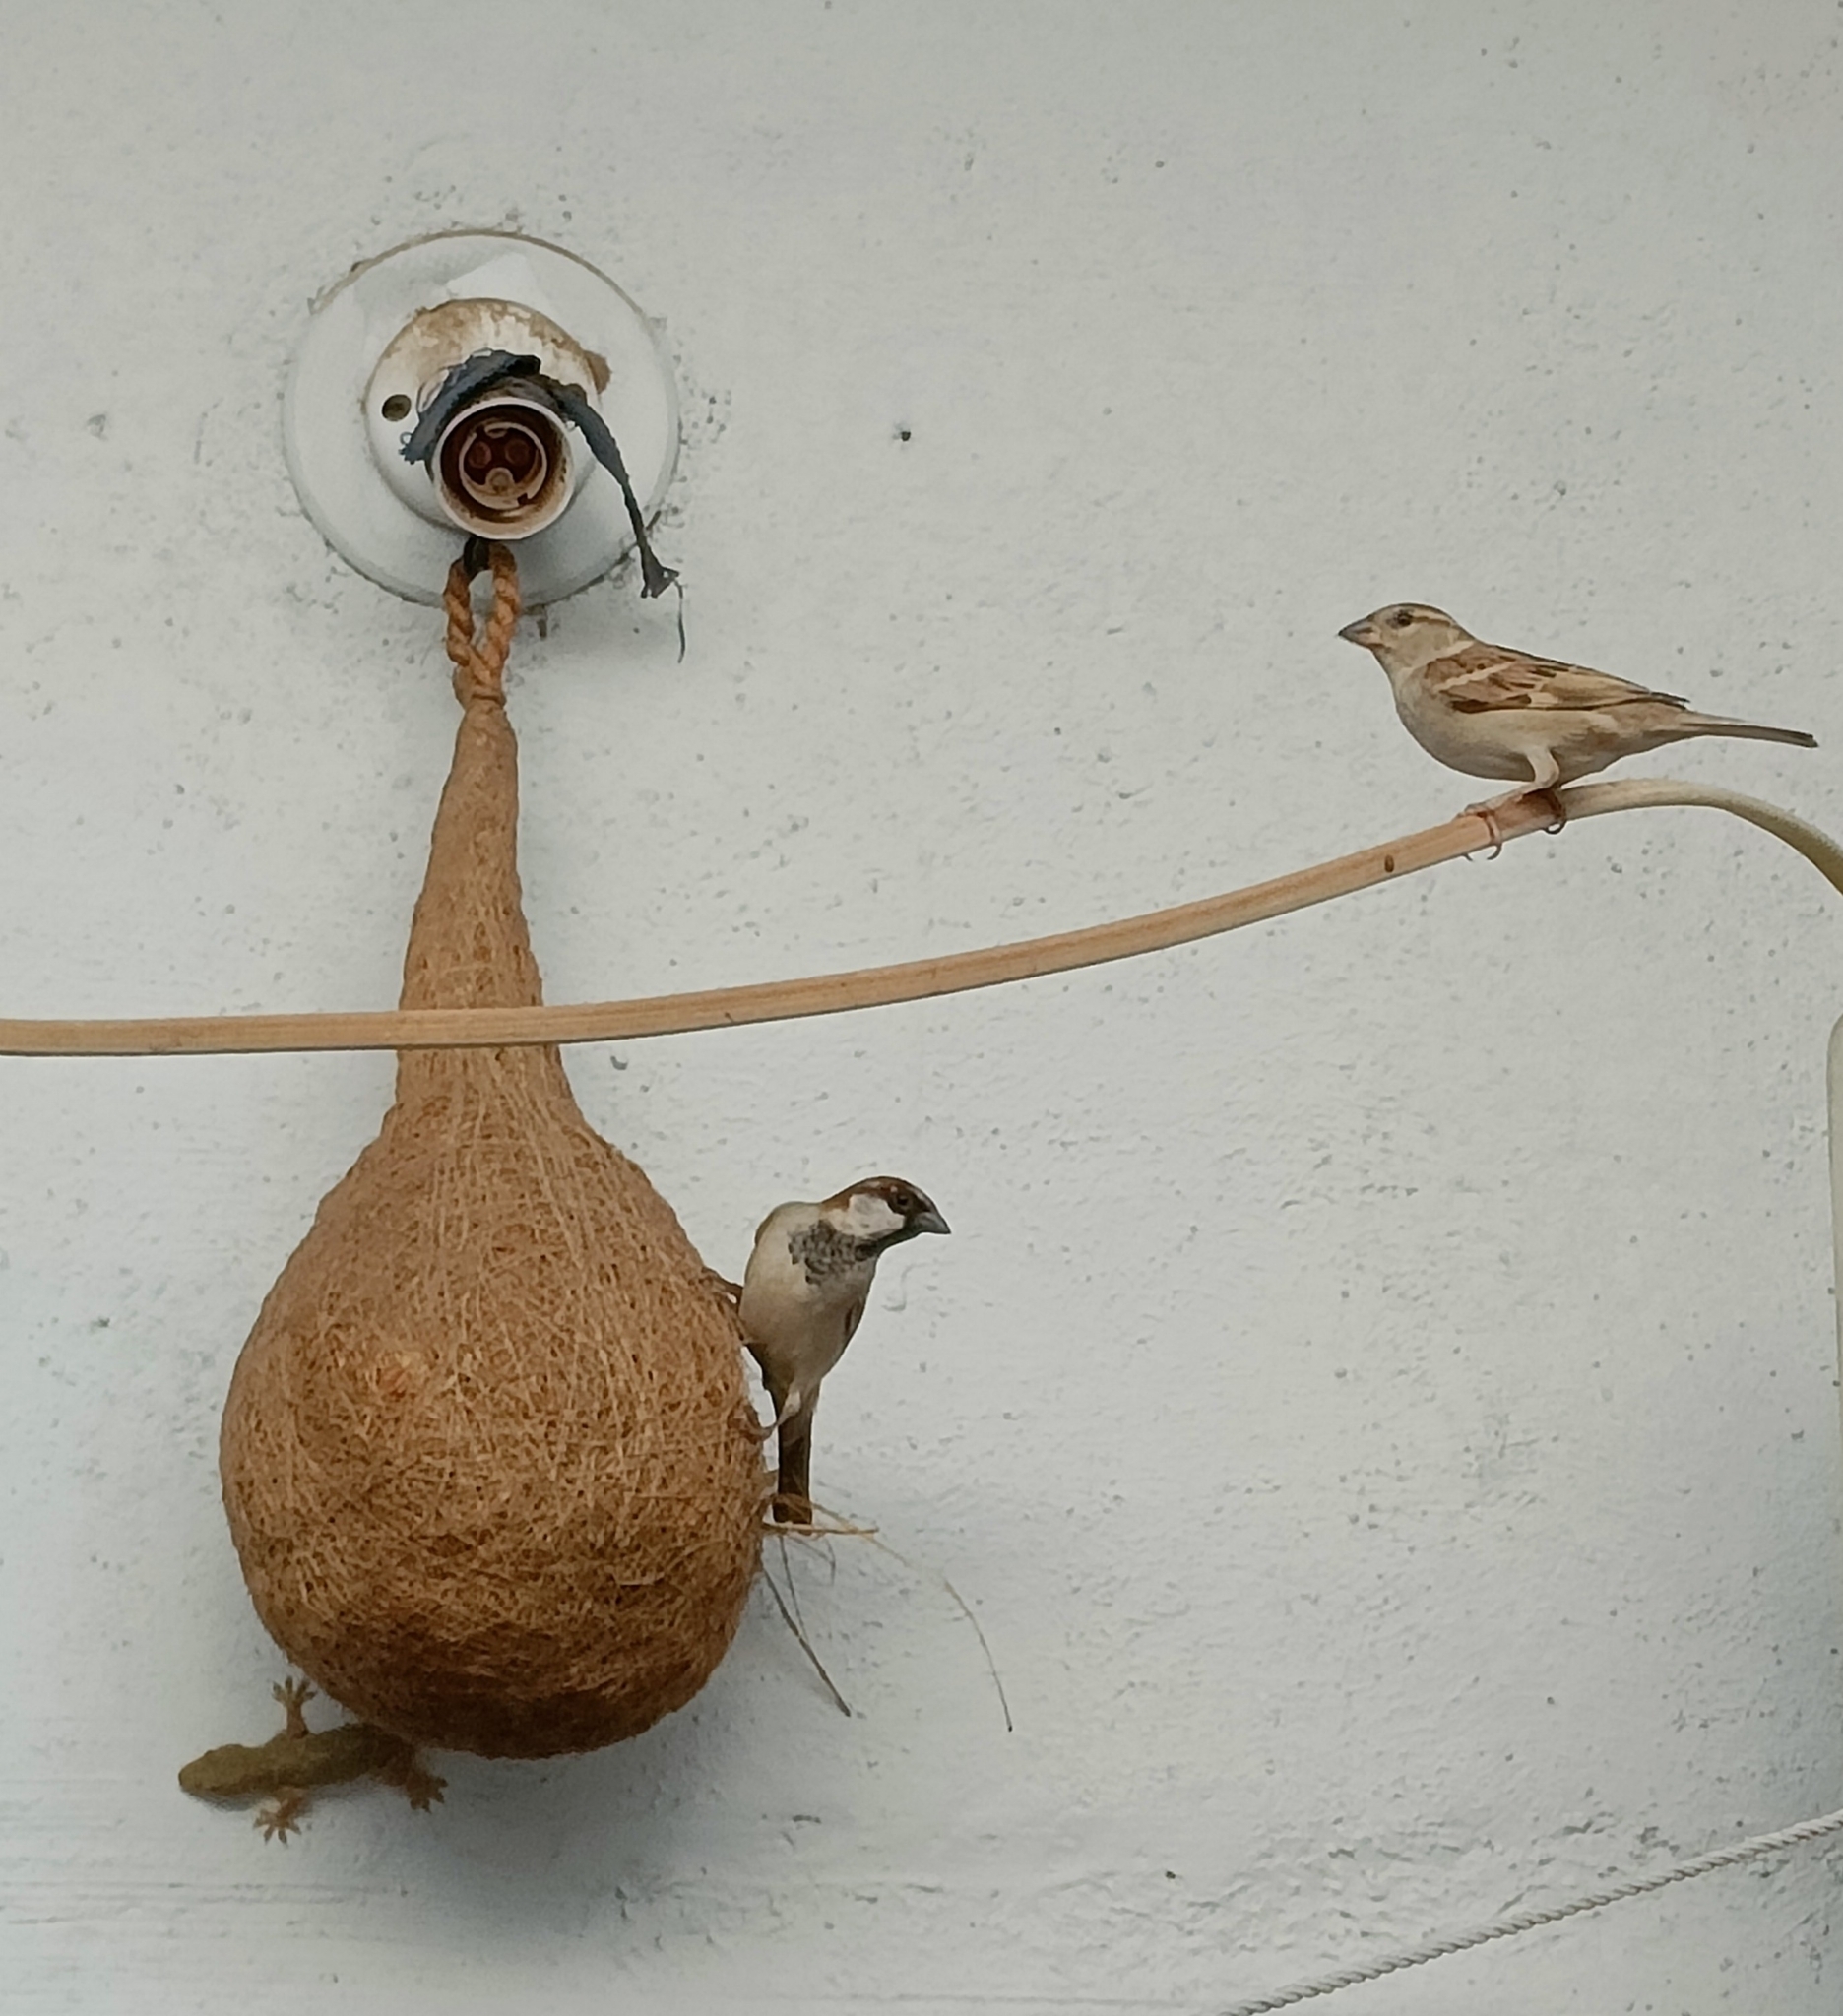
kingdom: Animalia
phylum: Chordata
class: Aves
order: Passeriformes
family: Passeridae
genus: Passer
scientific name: Passer domesticus
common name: House sparrow
